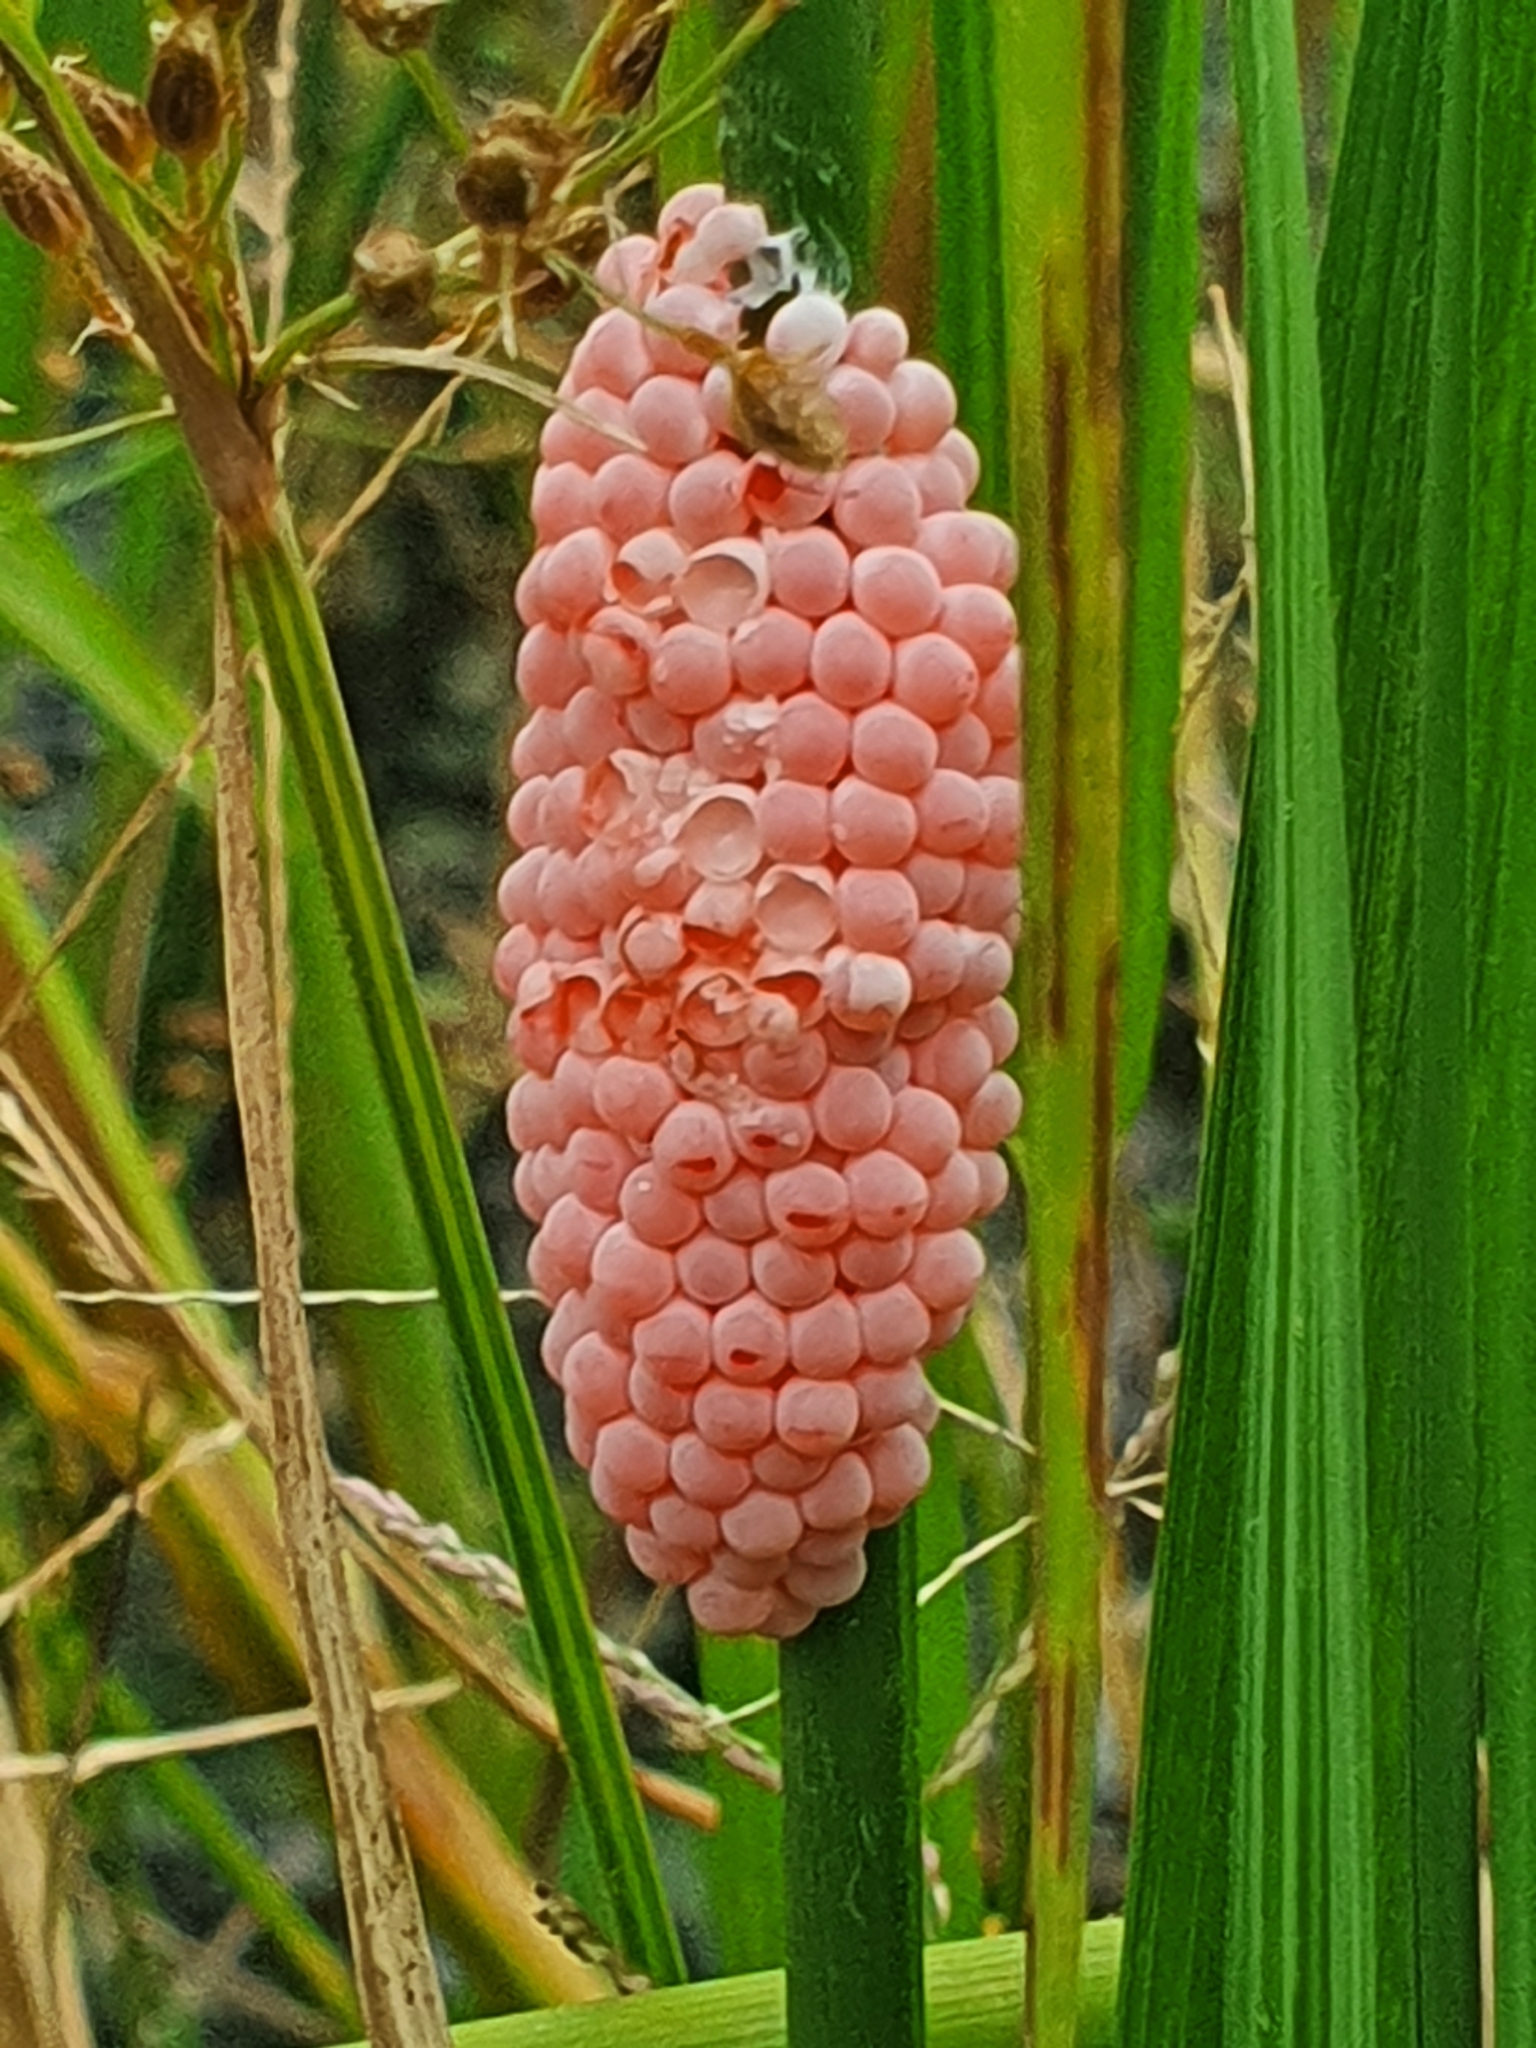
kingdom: Animalia
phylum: Mollusca
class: Gastropoda
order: Architaenioglossa
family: Ampullariidae
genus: Pomacea
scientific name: Pomacea canaliculata
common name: Channeled applesnail
